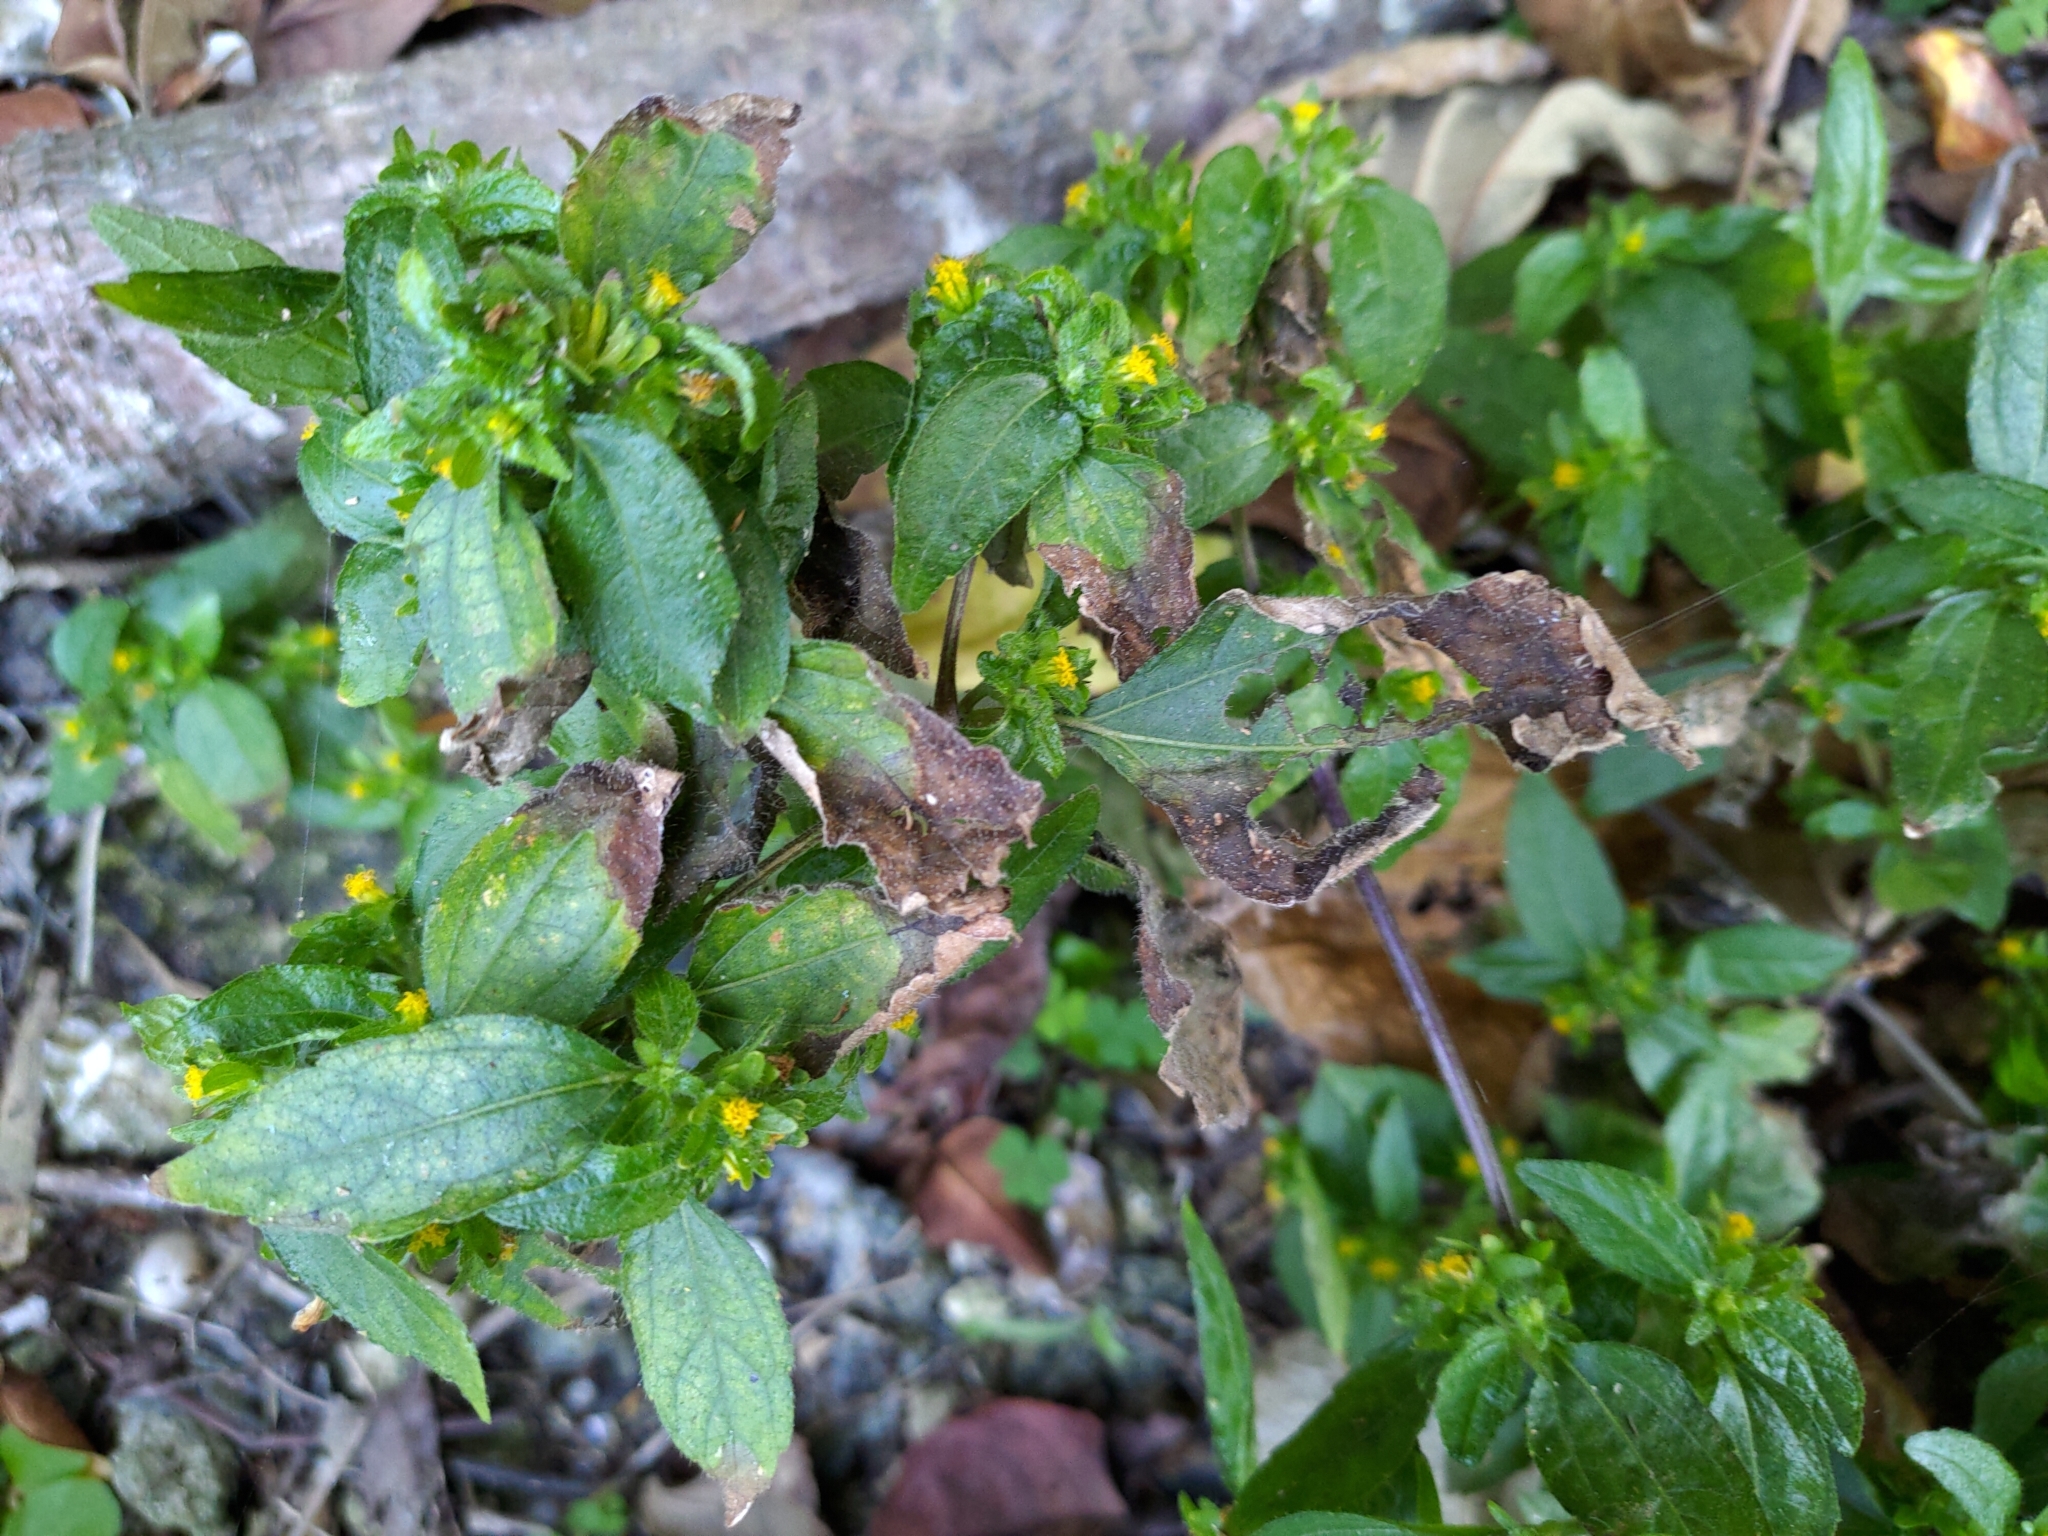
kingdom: Plantae
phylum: Tracheophyta
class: Magnoliopsida
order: Asterales
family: Asteraceae
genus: Synedrella
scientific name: Synedrella nodiflora
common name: Nodeweed
